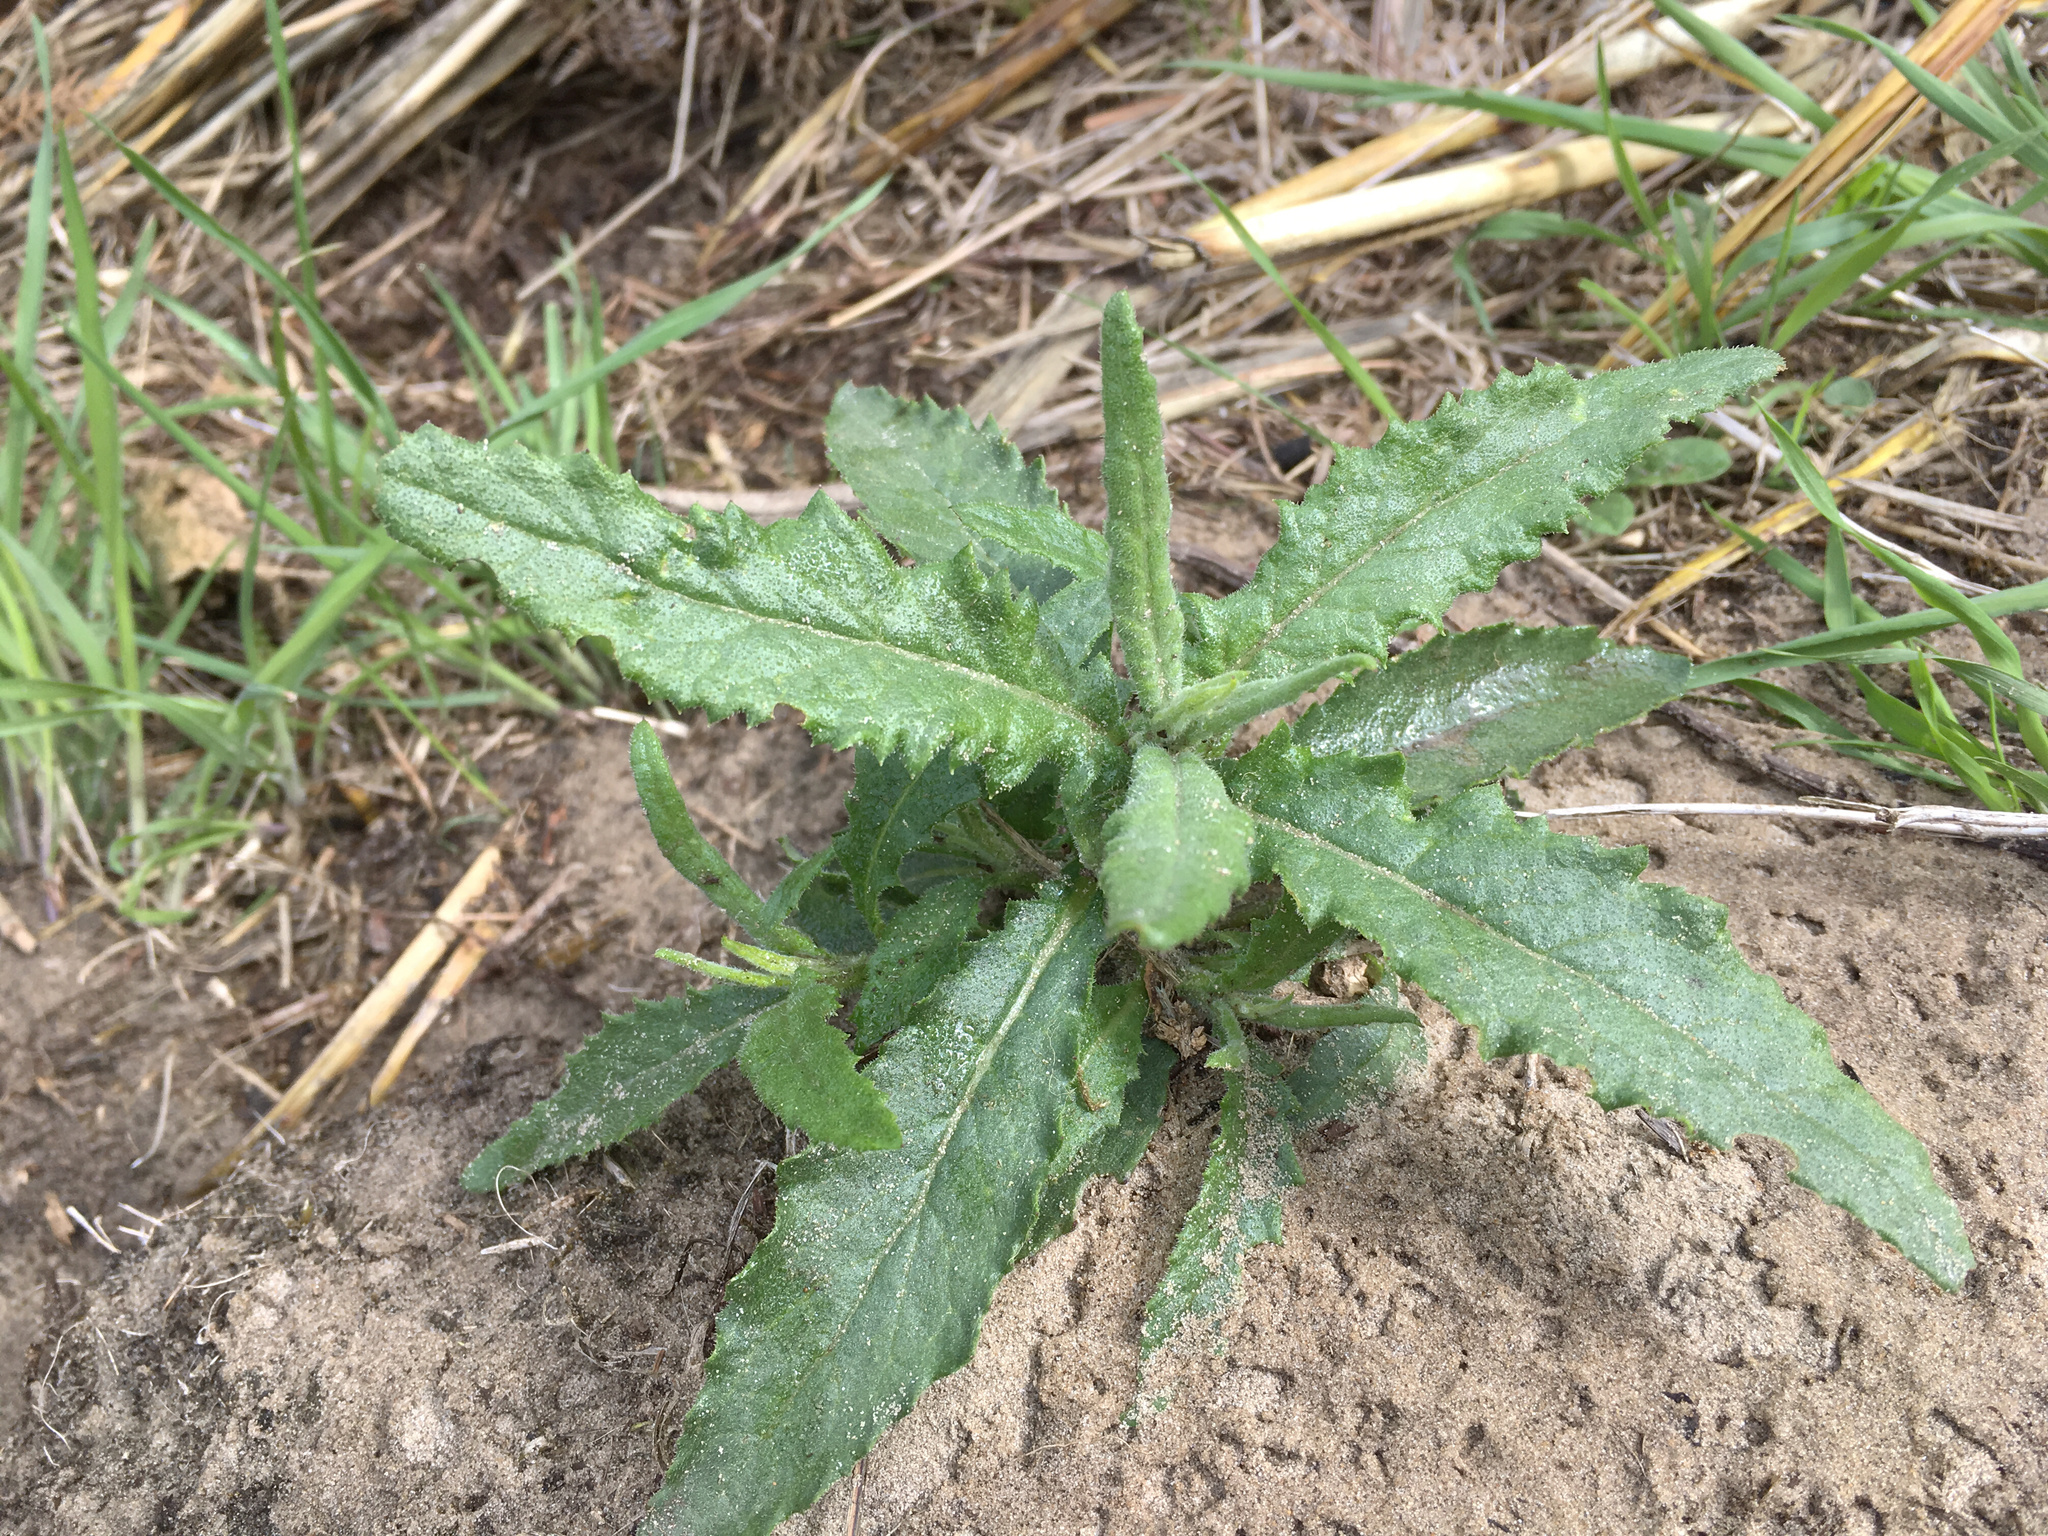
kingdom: Plantae
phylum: Tracheophyta
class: Magnoliopsida
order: Asterales
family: Asteraceae
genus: Senecio
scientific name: Senecio minimus
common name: Toothed fireweed
